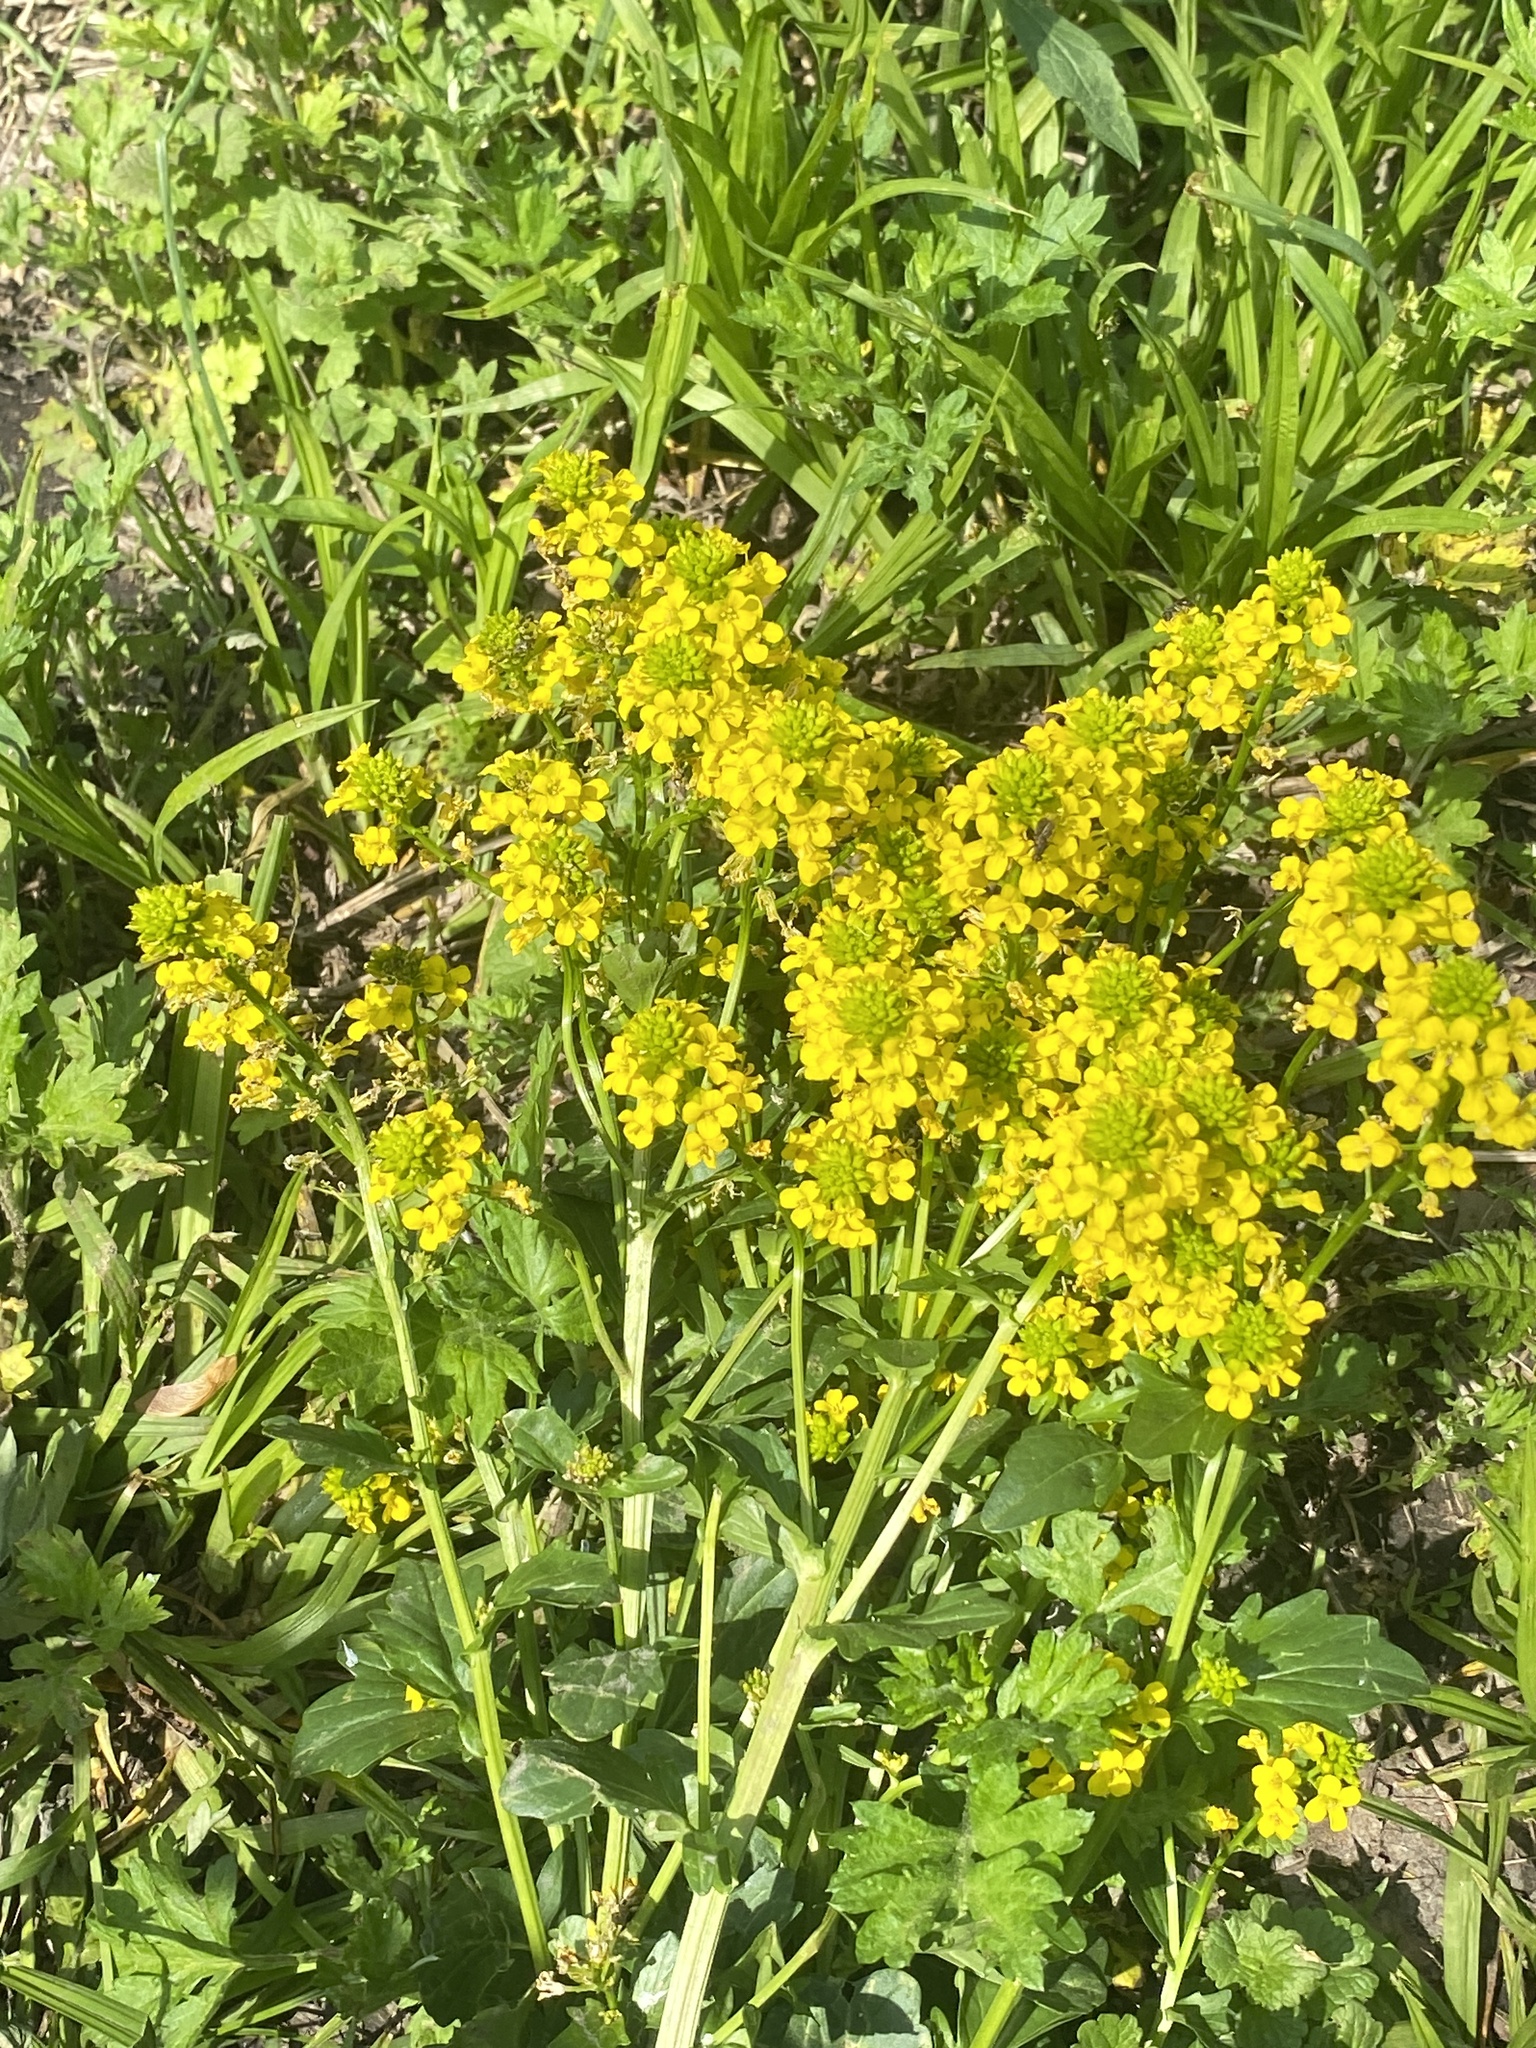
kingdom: Plantae
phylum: Tracheophyta
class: Magnoliopsida
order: Brassicales
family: Brassicaceae
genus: Barbarea
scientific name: Barbarea vulgaris
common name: Cressy-greens
